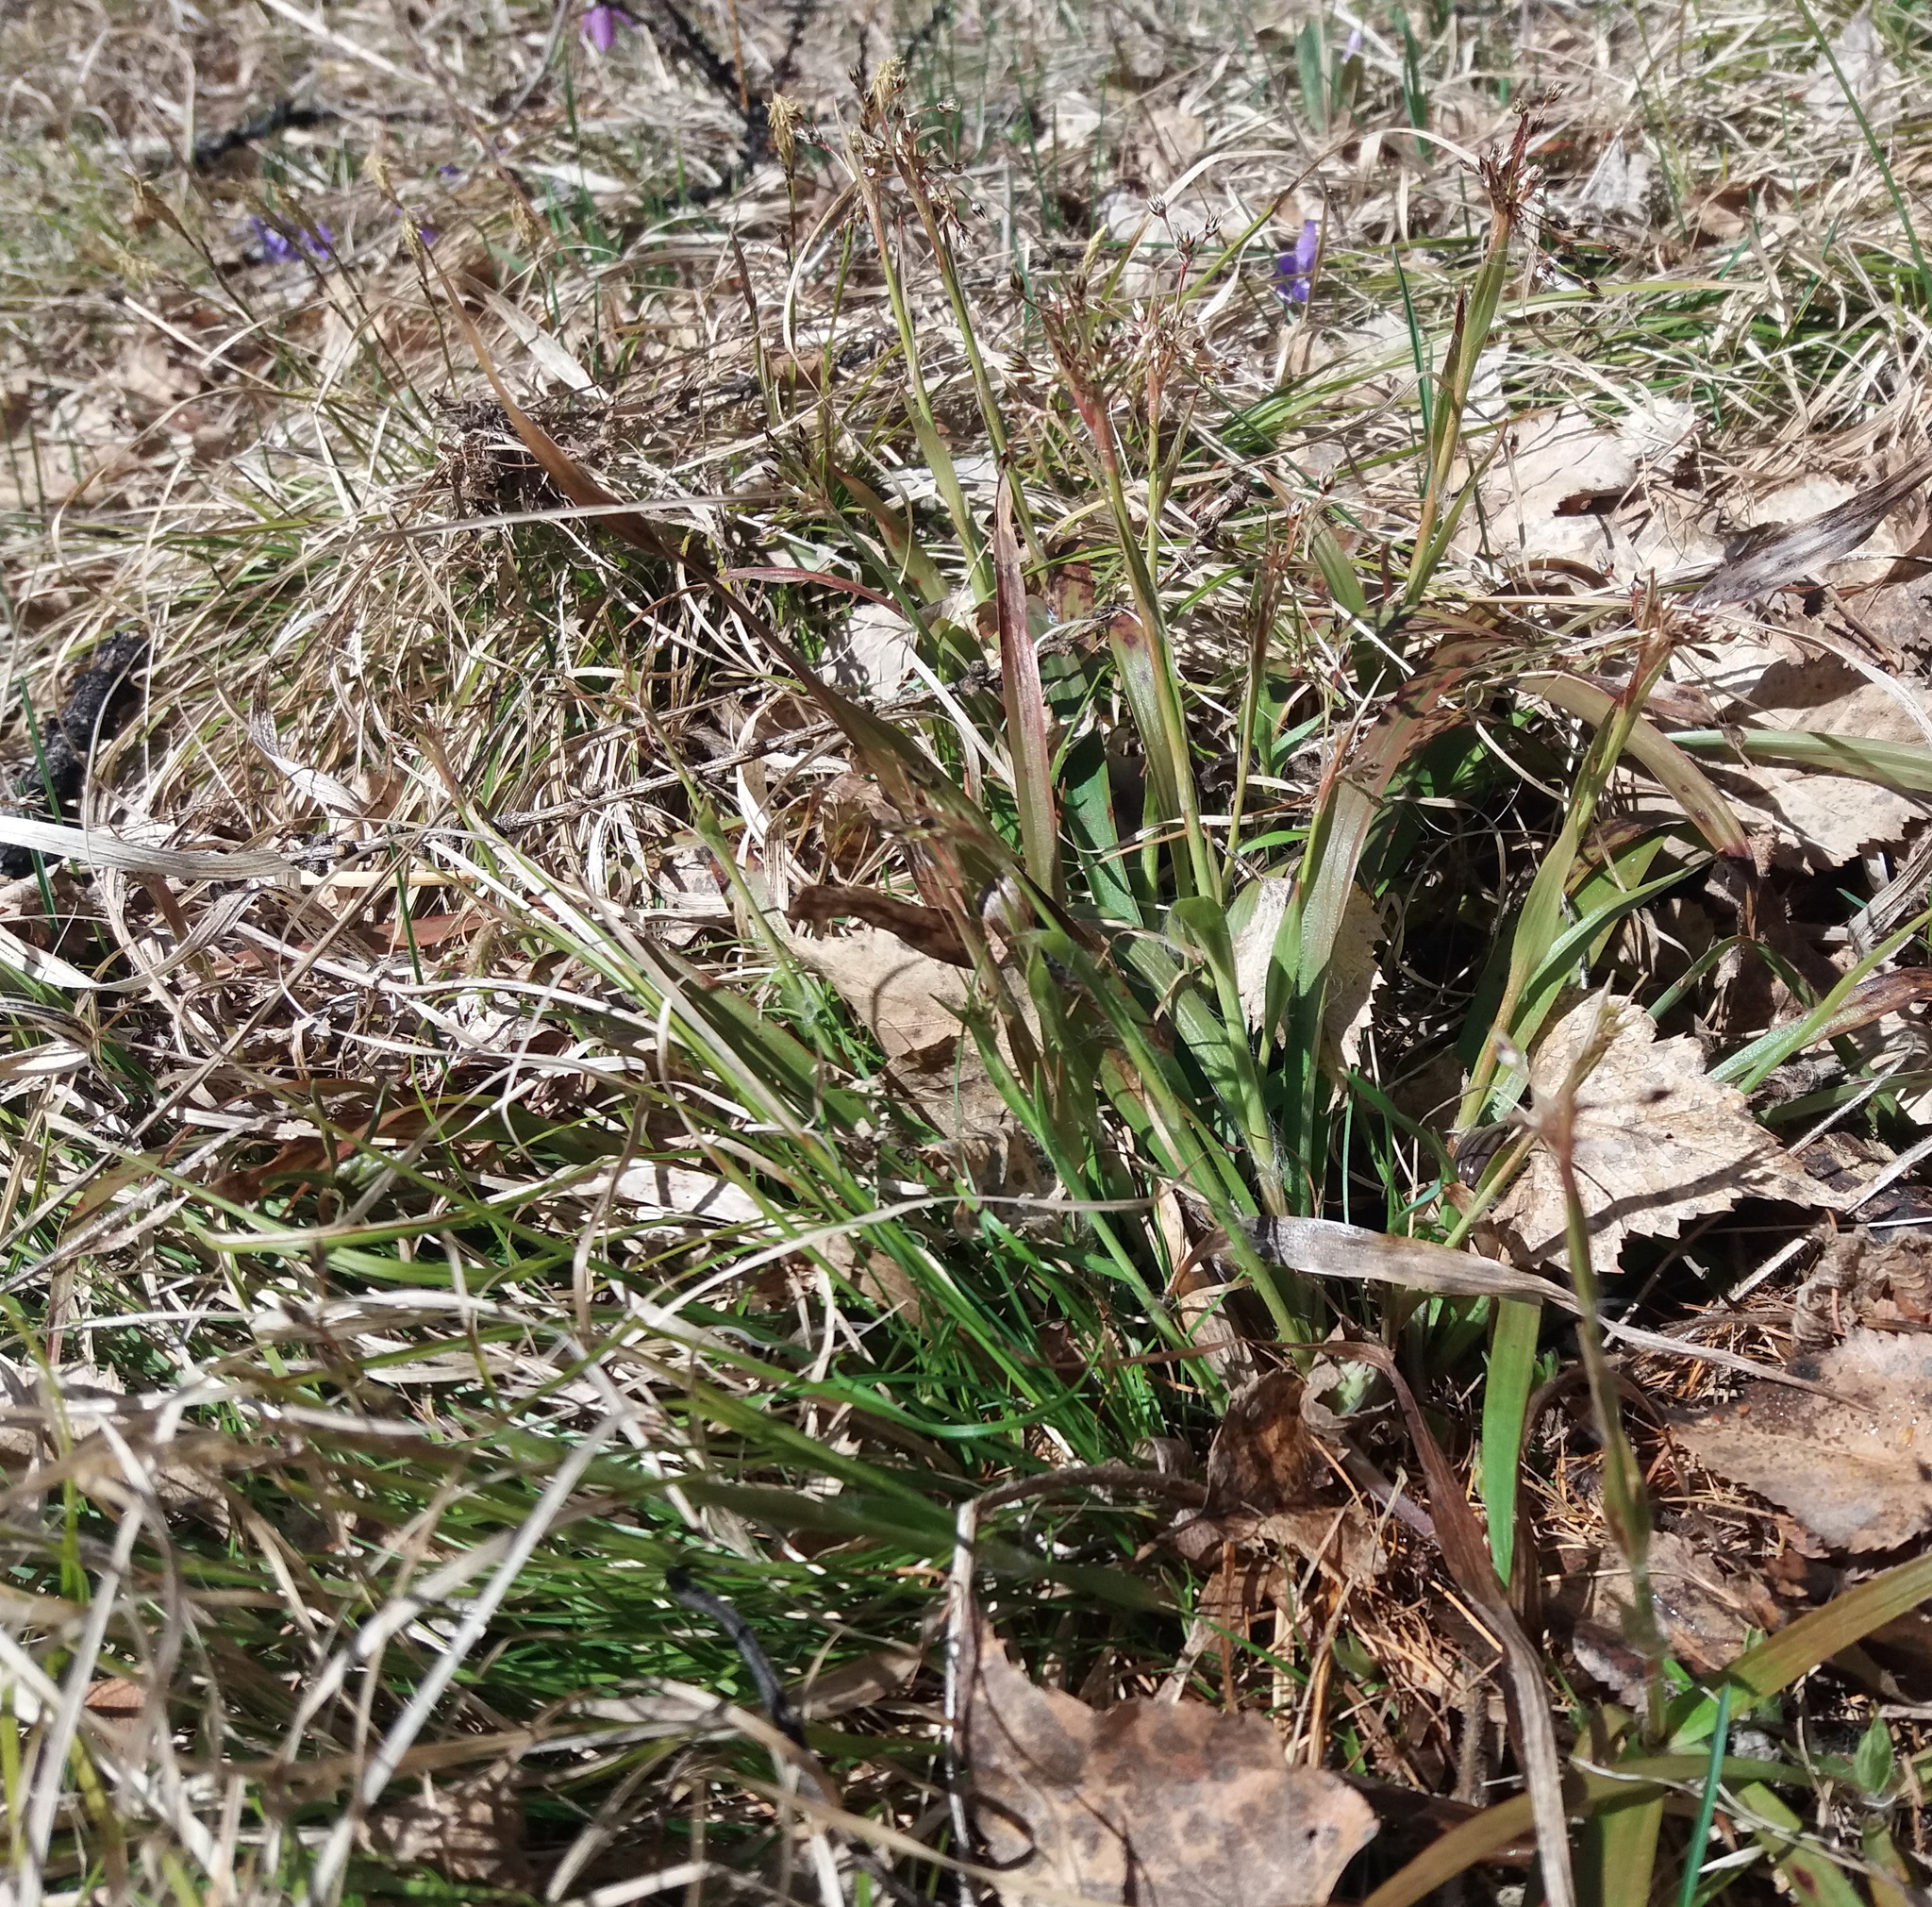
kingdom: Plantae
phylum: Tracheophyta
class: Liliopsida
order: Poales
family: Juncaceae
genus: Luzula
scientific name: Luzula pilosa
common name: Hairy wood-rush
